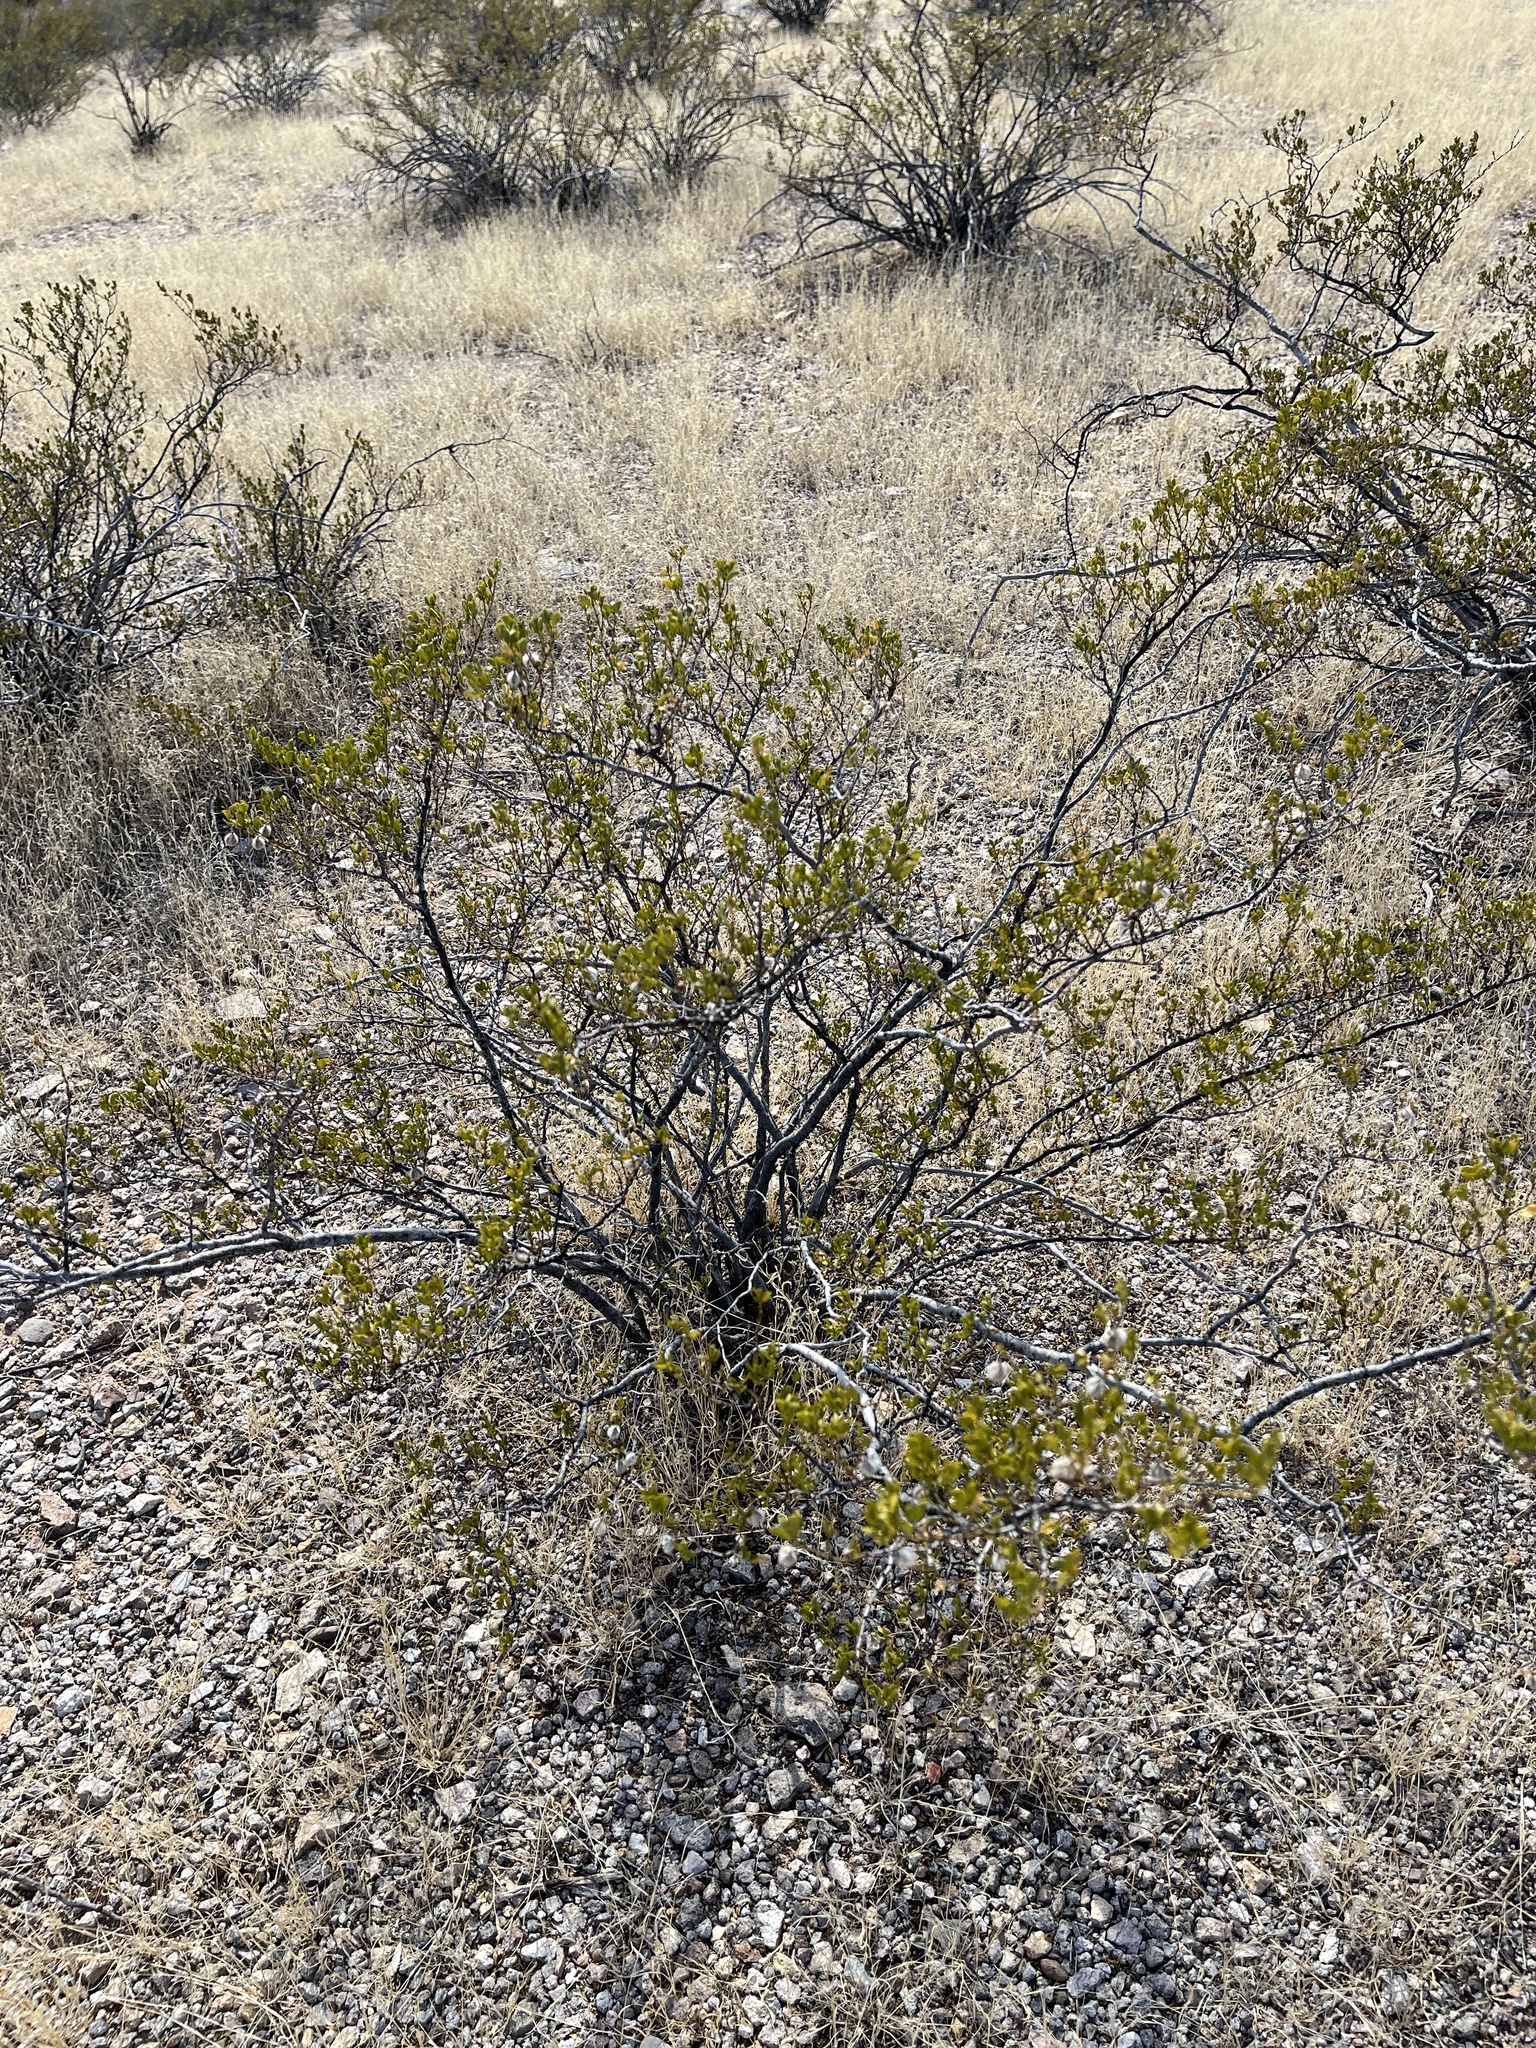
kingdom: Plantae
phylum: Tracheophyta
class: Magnoliopsida
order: Zygophyllales
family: Zygophyllaceae
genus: Larrea
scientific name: Larrea tridentata
